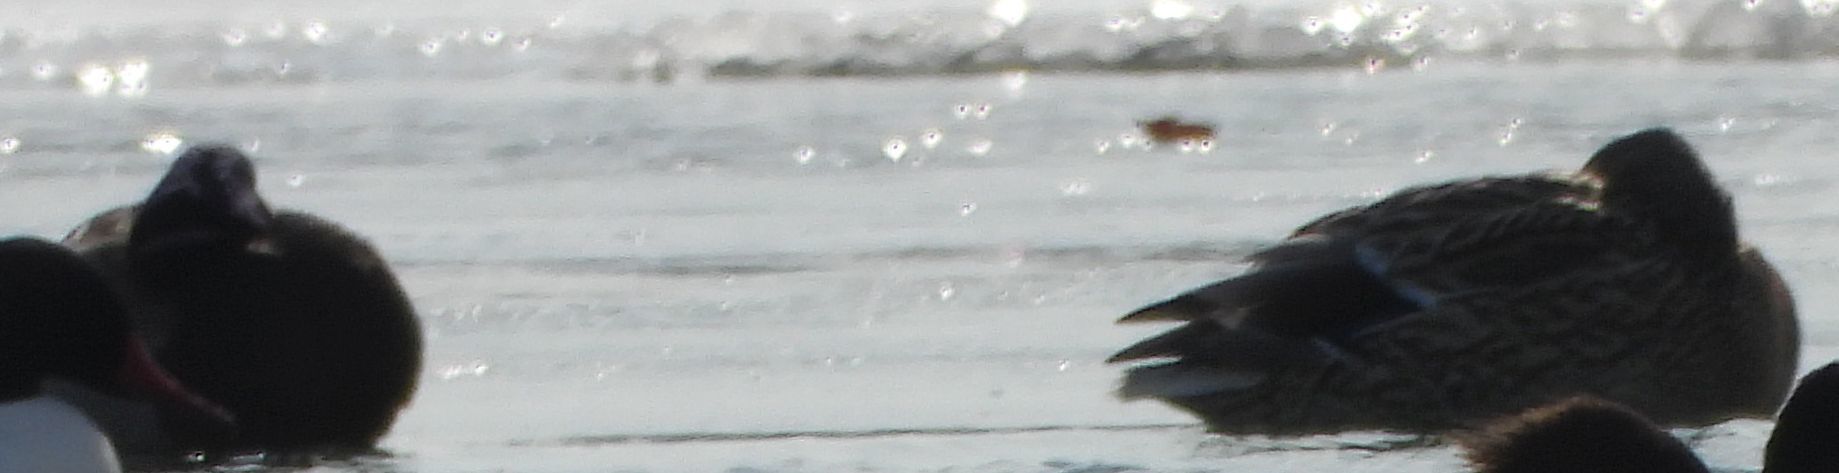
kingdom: Animalia
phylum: Chordata
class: Aves
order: Anseriformes
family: Anatidae
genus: Anas
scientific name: Anas platyrhynchos
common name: Mallard
